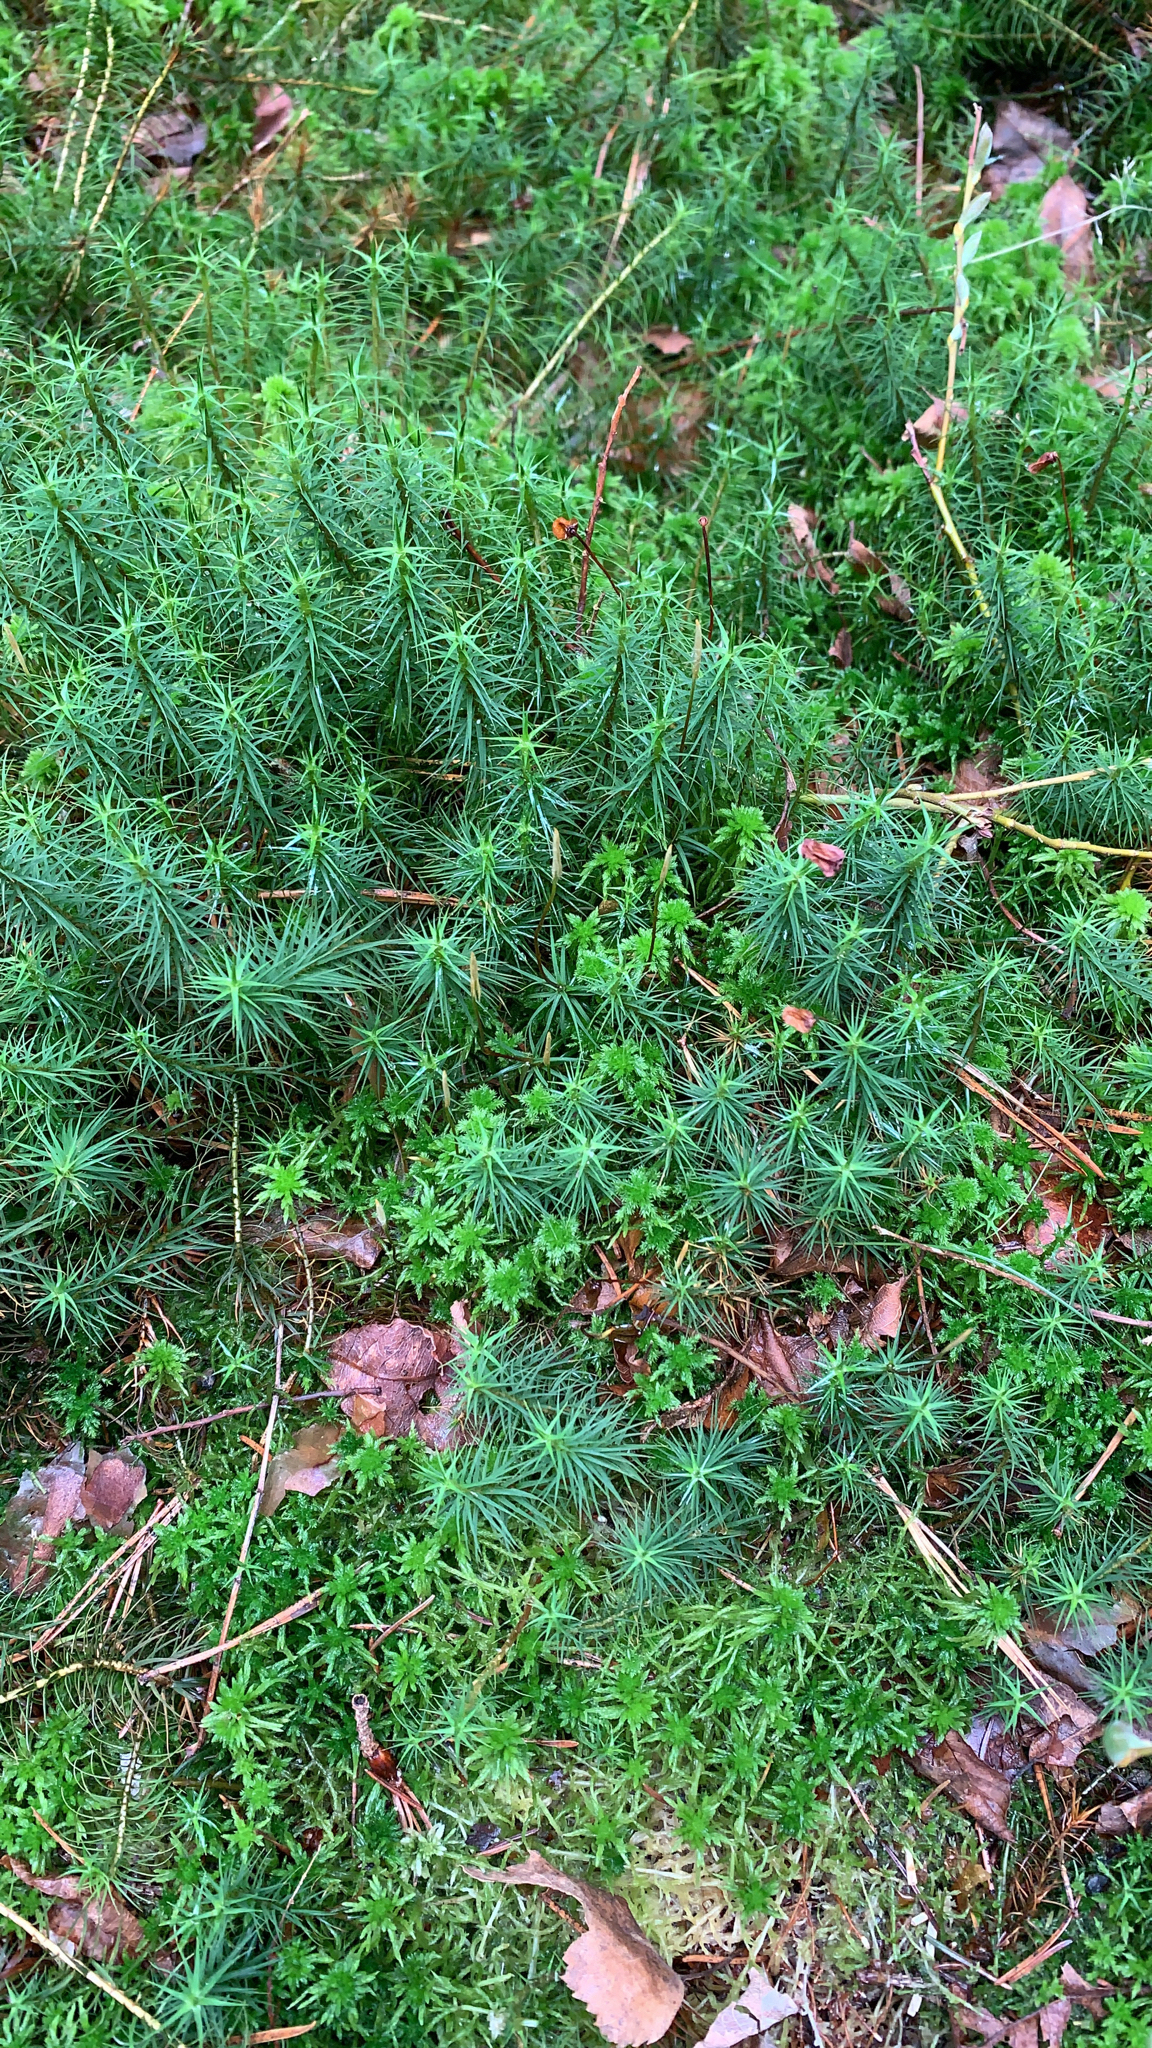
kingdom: Plantae
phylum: Bryophyta
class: Polytrichopsida
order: Polytrichales
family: Polytrichaceae
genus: Polytrichum
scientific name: Polytrichum commune
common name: Common haircap
